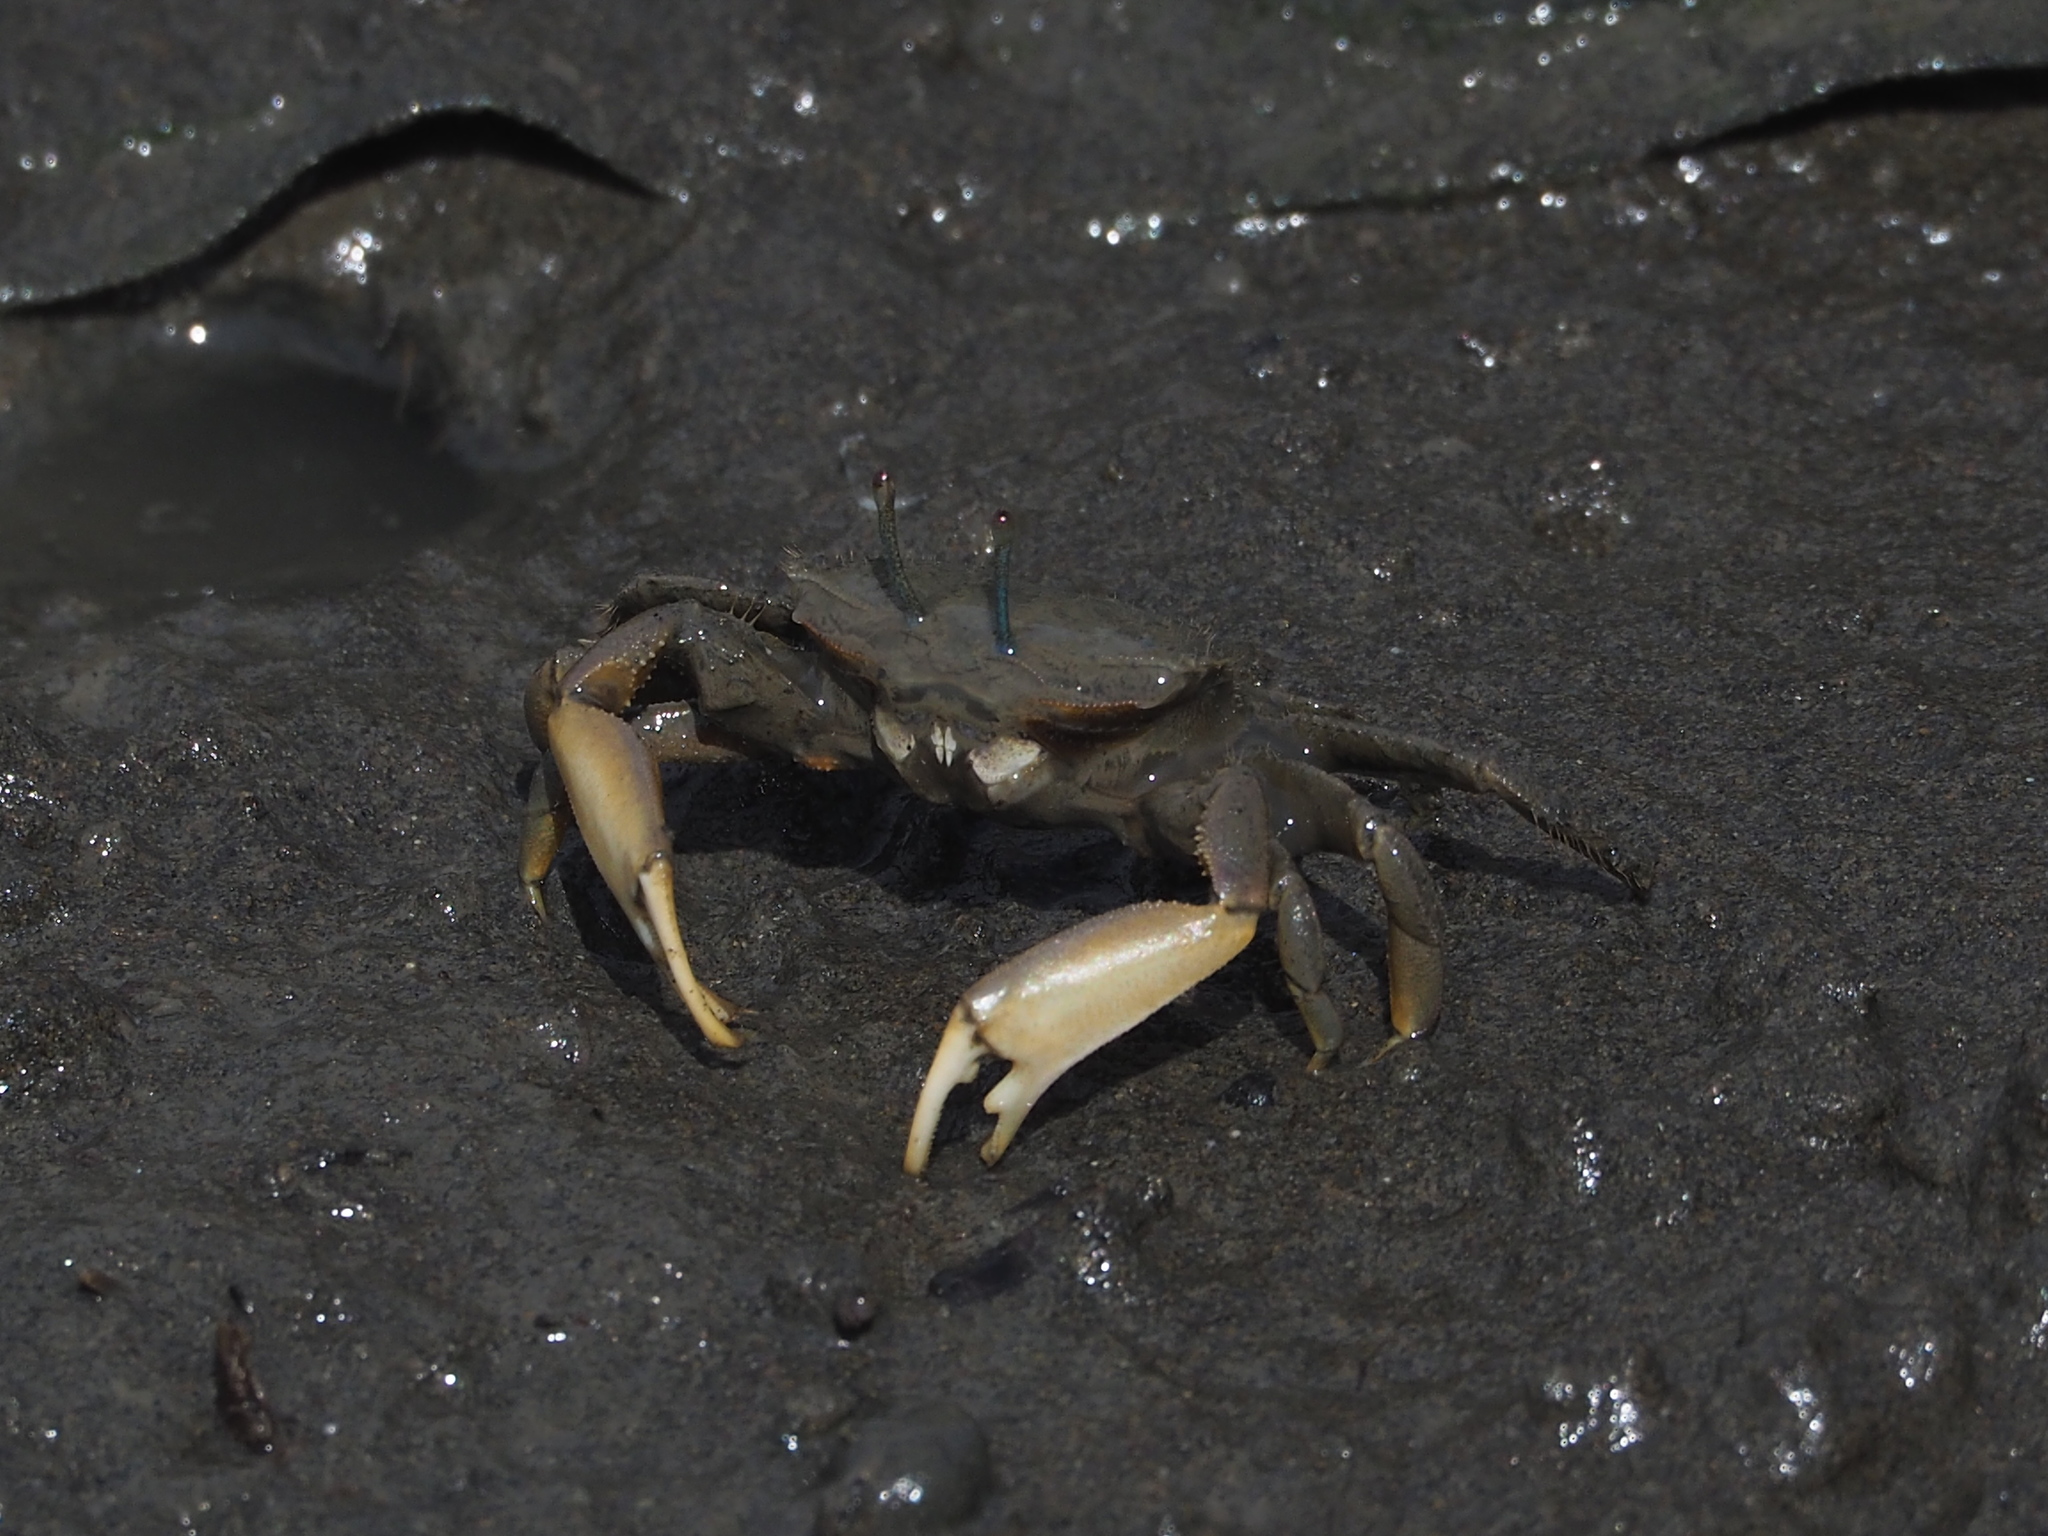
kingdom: Animalia
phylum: Arthropoda
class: Malacostraca
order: Decapoda
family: Macrophthalmidae
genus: Macrophthalmus
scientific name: Macrophthalmus banzai
